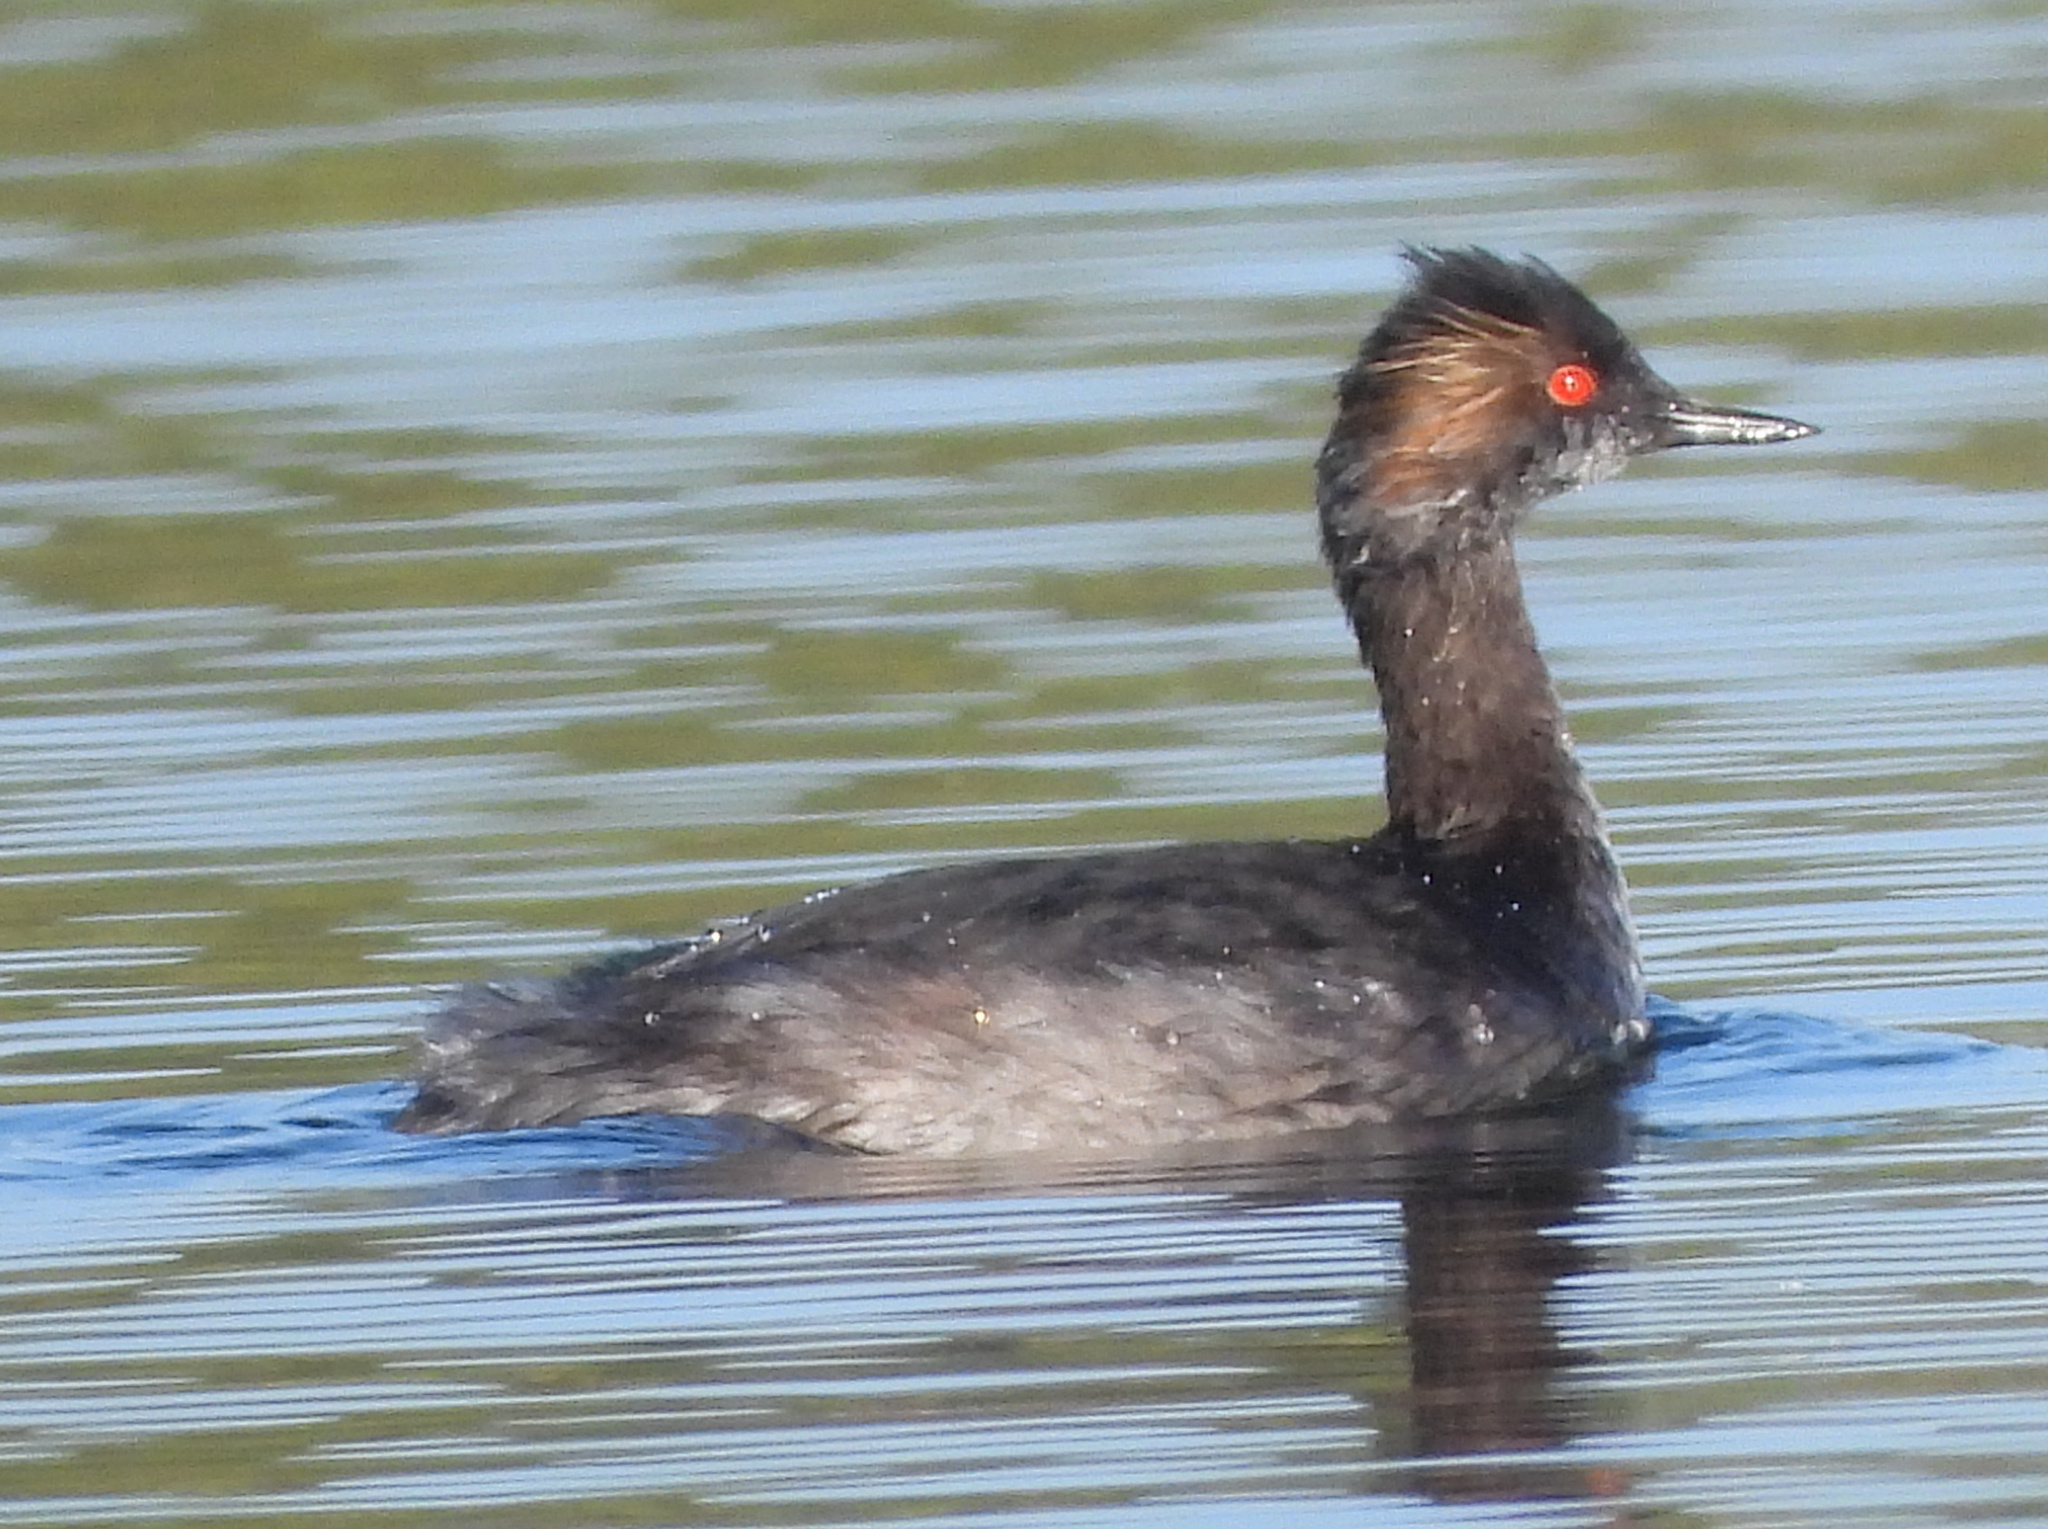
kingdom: Animalia
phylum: Chordata
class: Aves
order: Podicipediformes
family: Podicipedidae
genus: Podiceps
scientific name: Podiceps nigricollis
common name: Black-necked grebe
